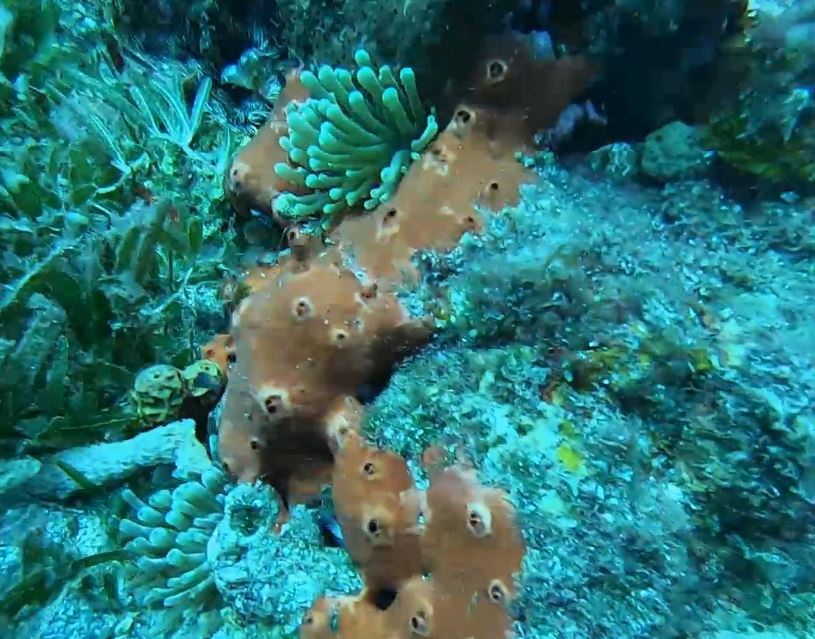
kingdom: Animalia
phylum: Cnidaria
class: Anthozoa
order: Actiniaria
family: Actiniidae
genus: Condylactis
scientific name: Condylactis gigantea
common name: Giant caribbean anemone
